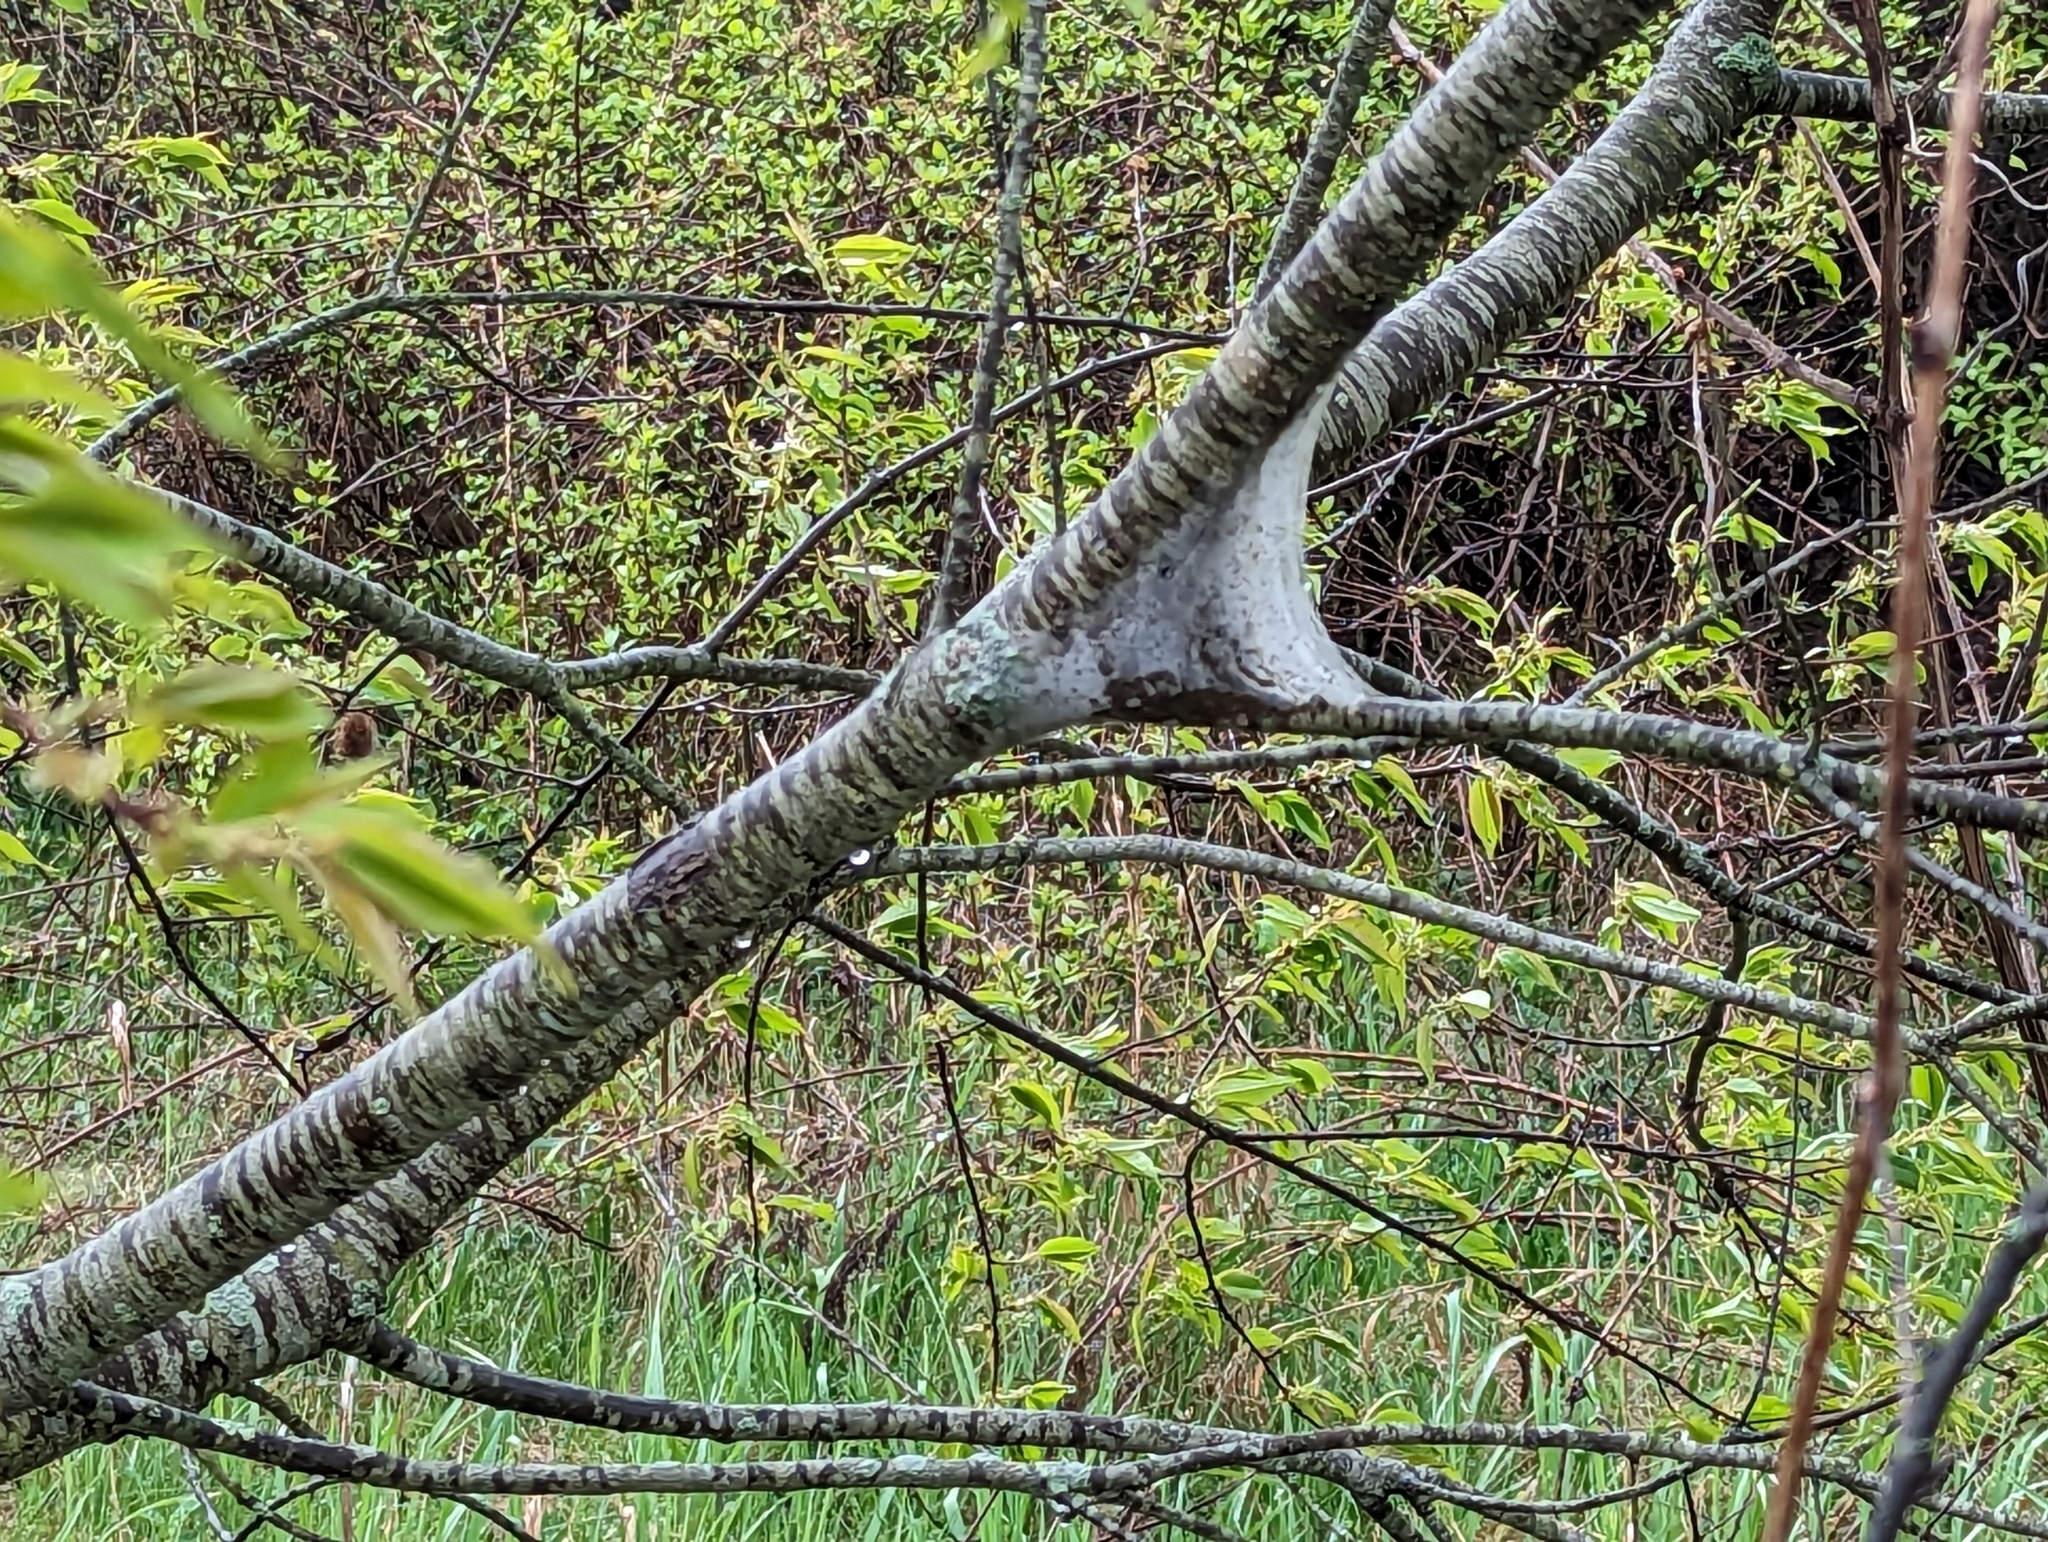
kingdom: Animalia
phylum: Arthropoda
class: Insecta
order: Lepidoptera
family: Lasiocampidae
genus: Malacosoma
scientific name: Malacosoma americana
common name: Eastern tent caterpillar moth
